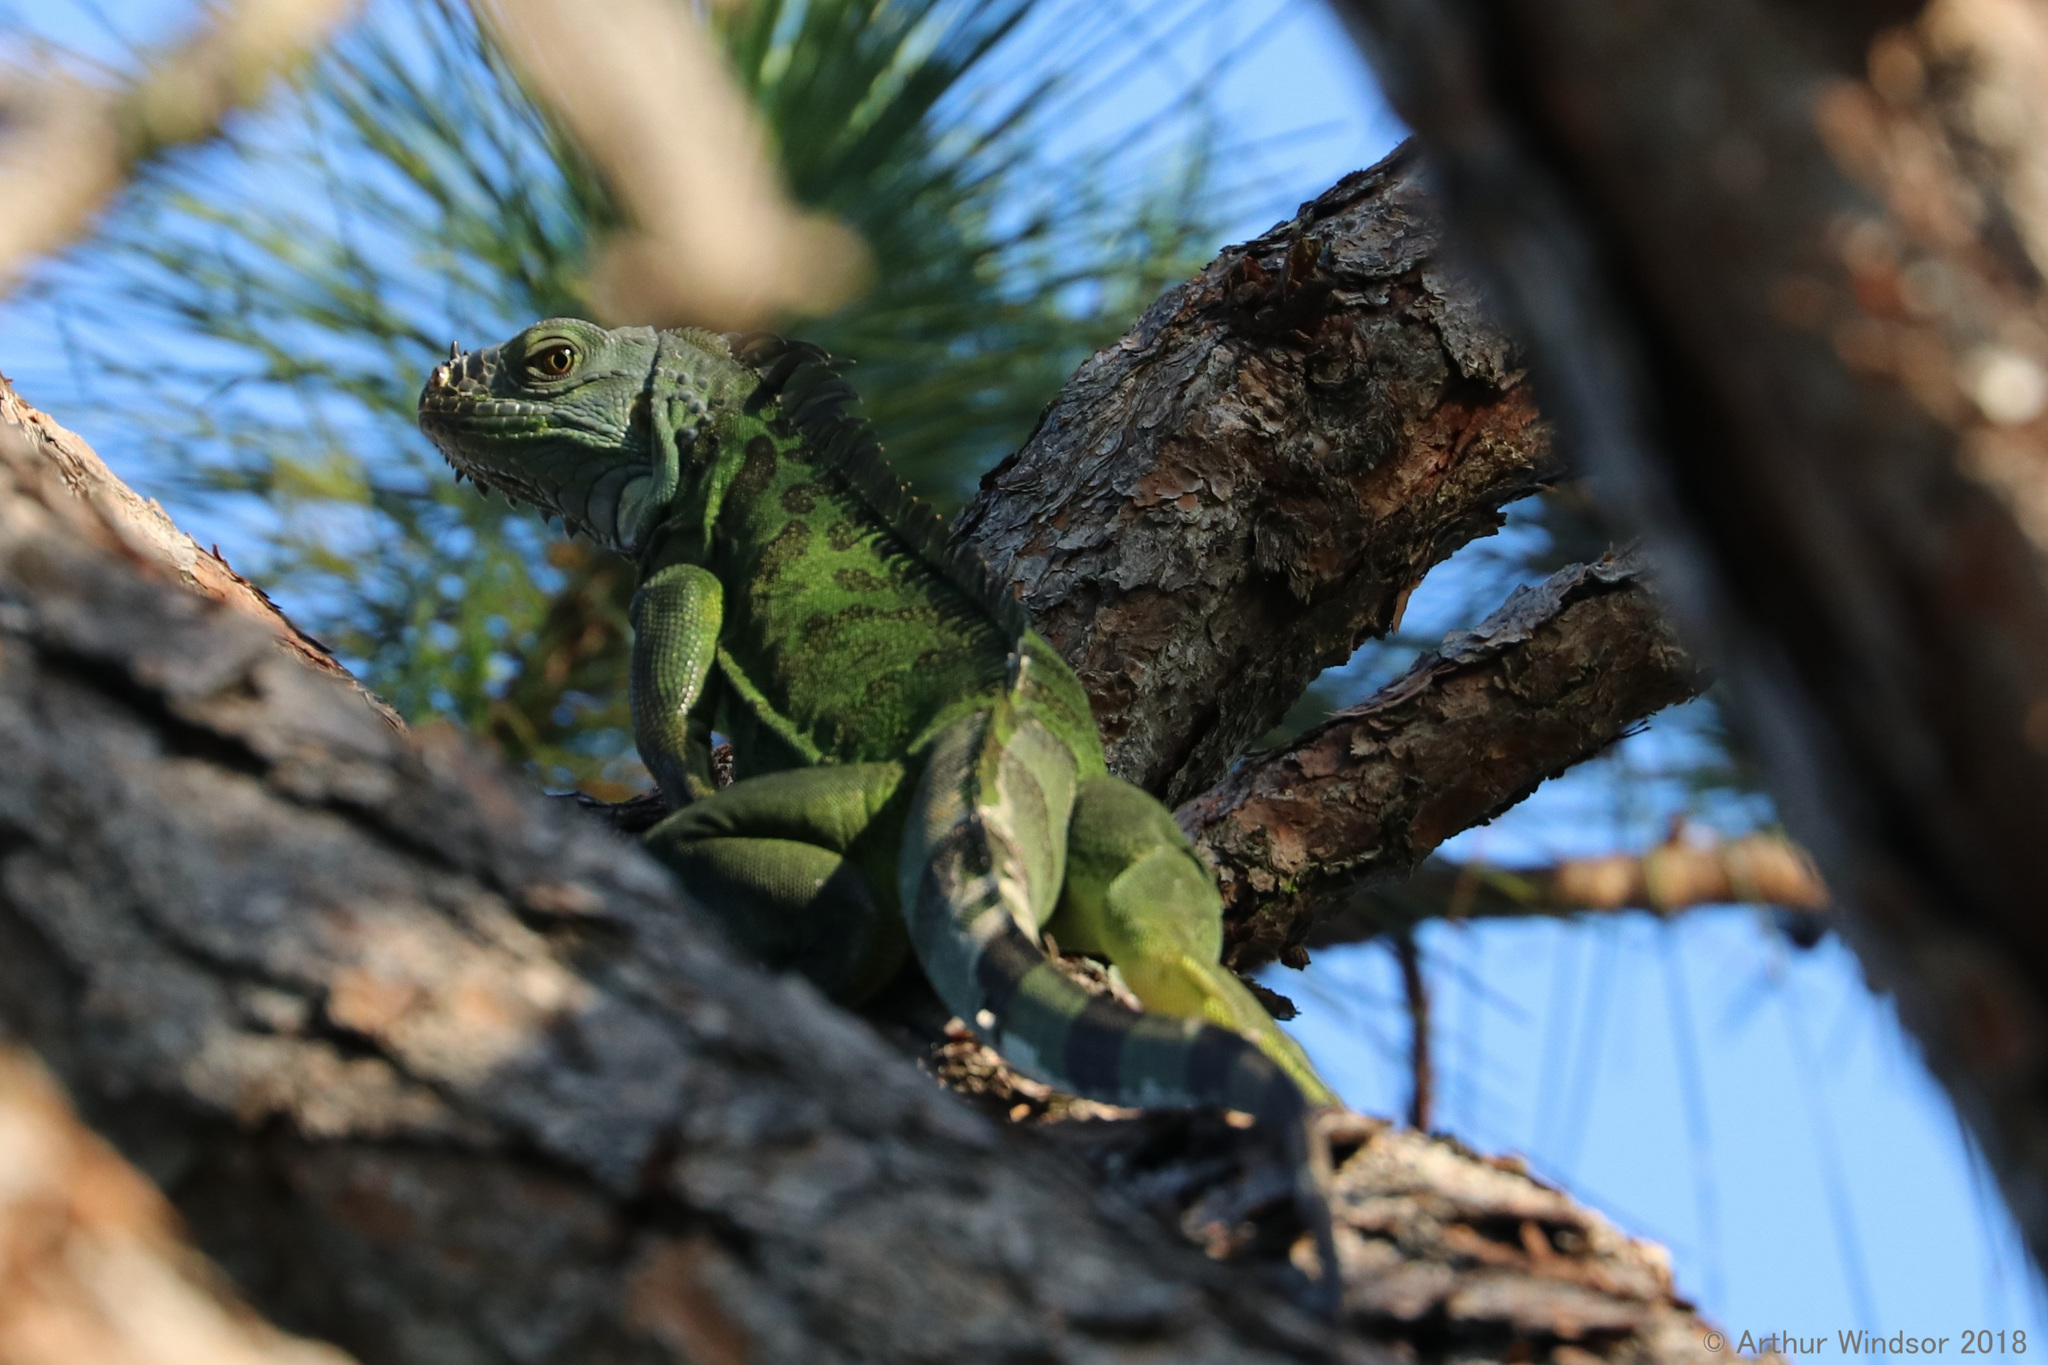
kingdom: Animalia
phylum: Chordata
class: Squamata
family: Iguanidae
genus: Iguana
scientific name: Iguana iguana
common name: Green iguana
